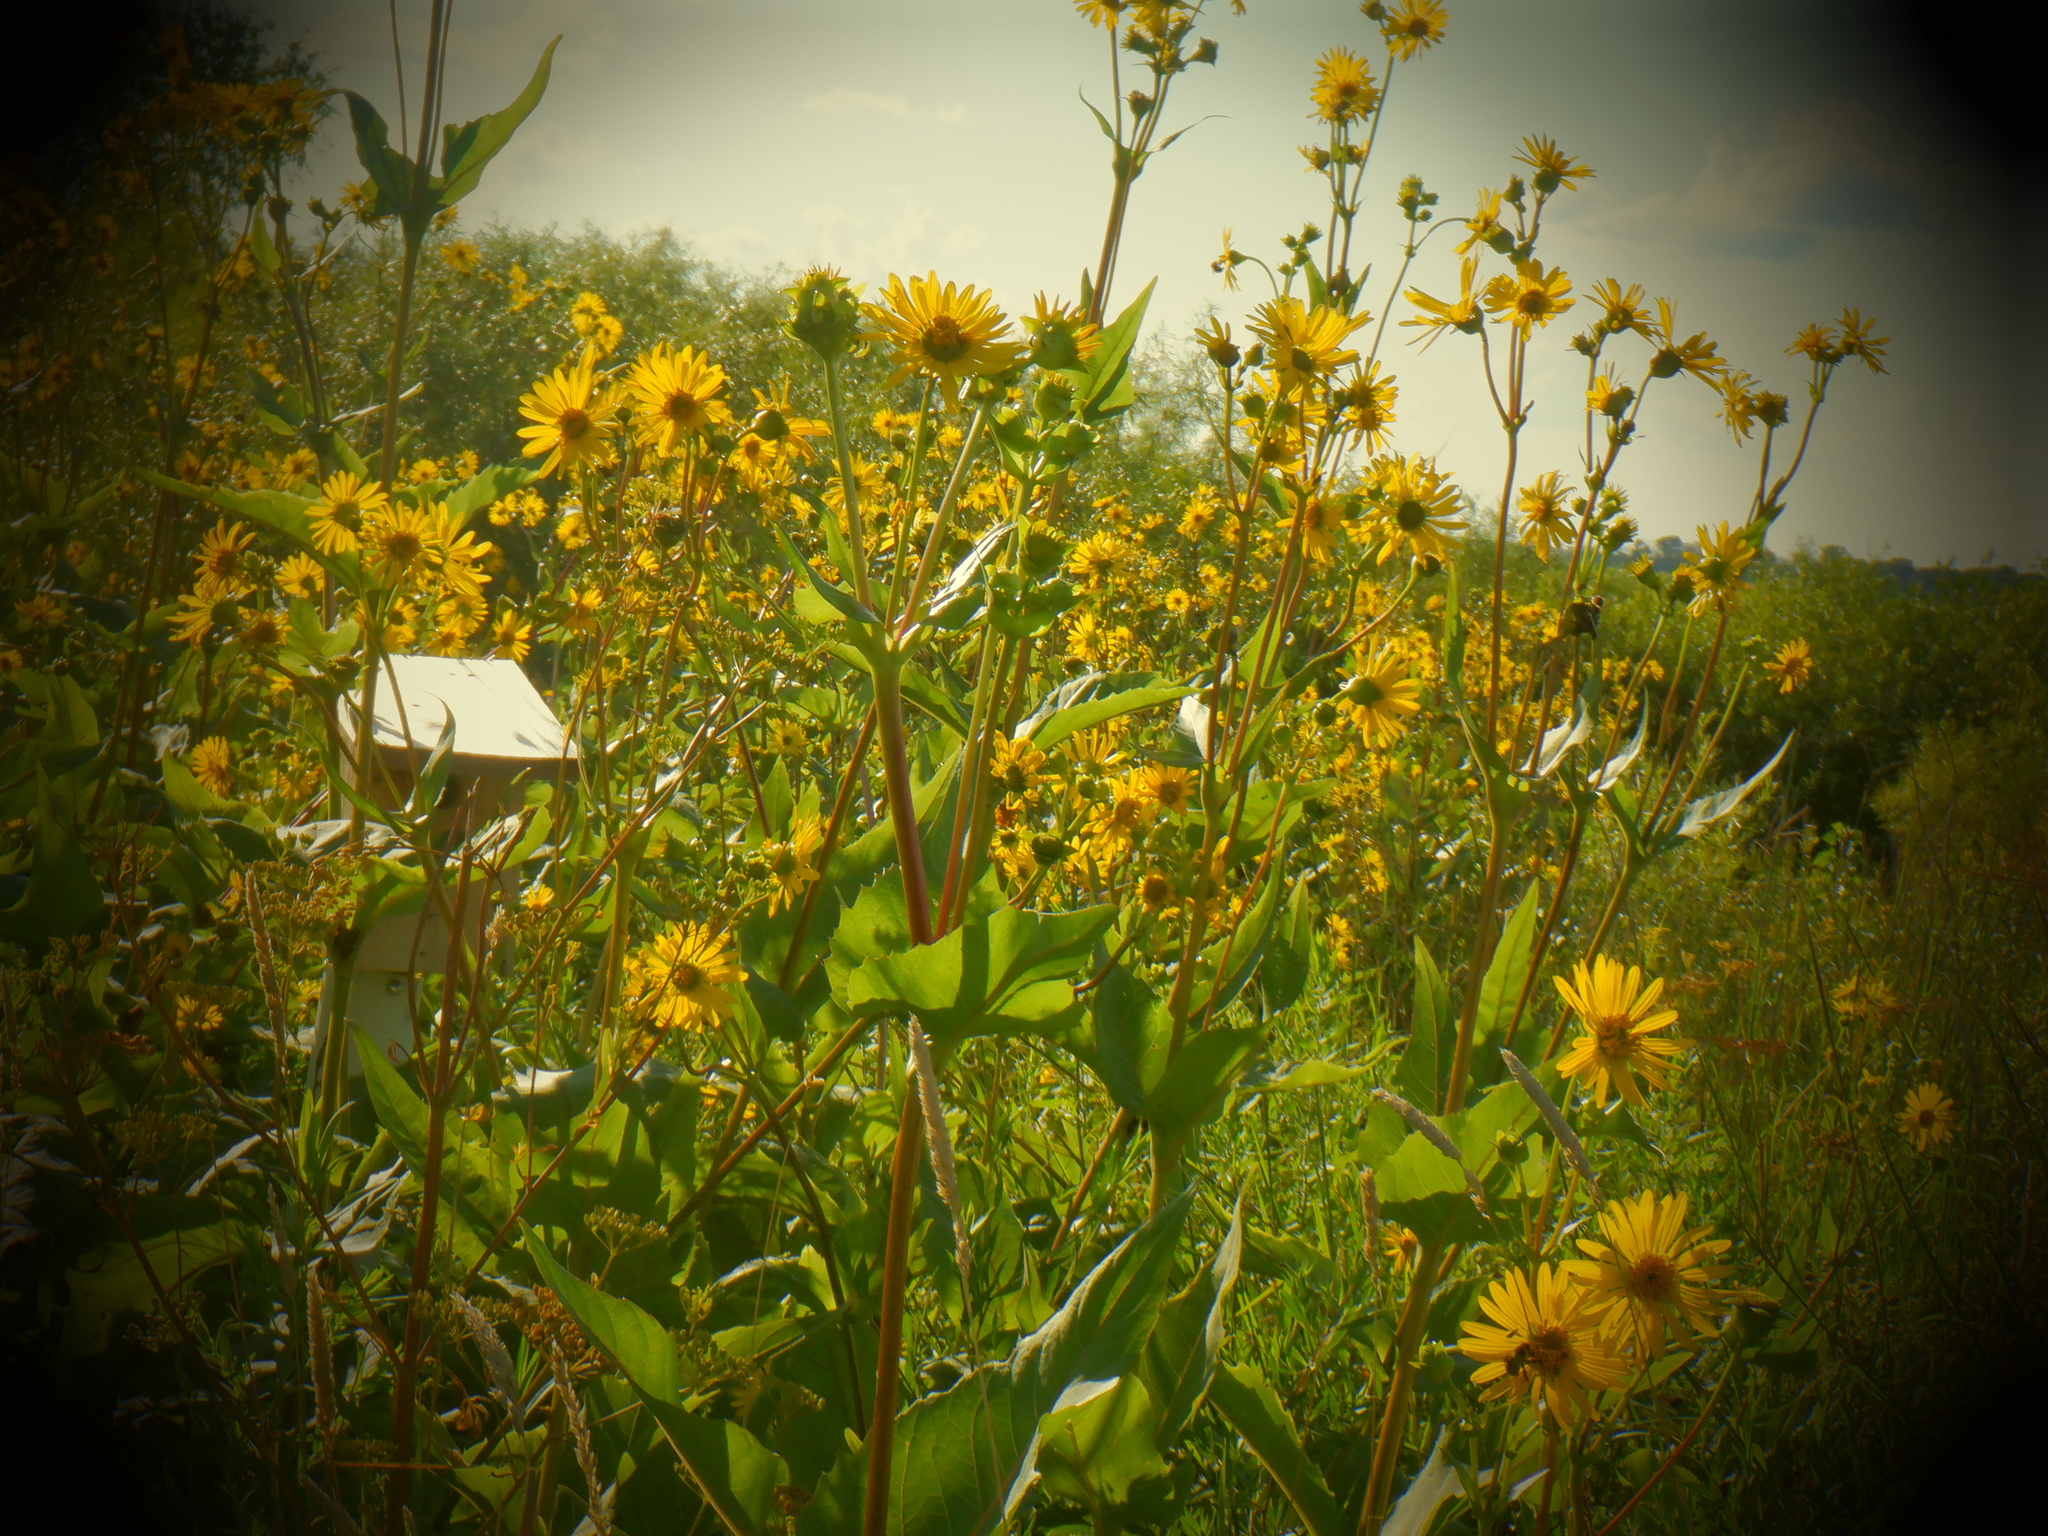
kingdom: Plantae
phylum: Tracheophyta
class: Magnoliopsida
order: Asterales
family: Asteraceae
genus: Silphium
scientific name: Silphium perfoliatum
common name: Cup-plant
